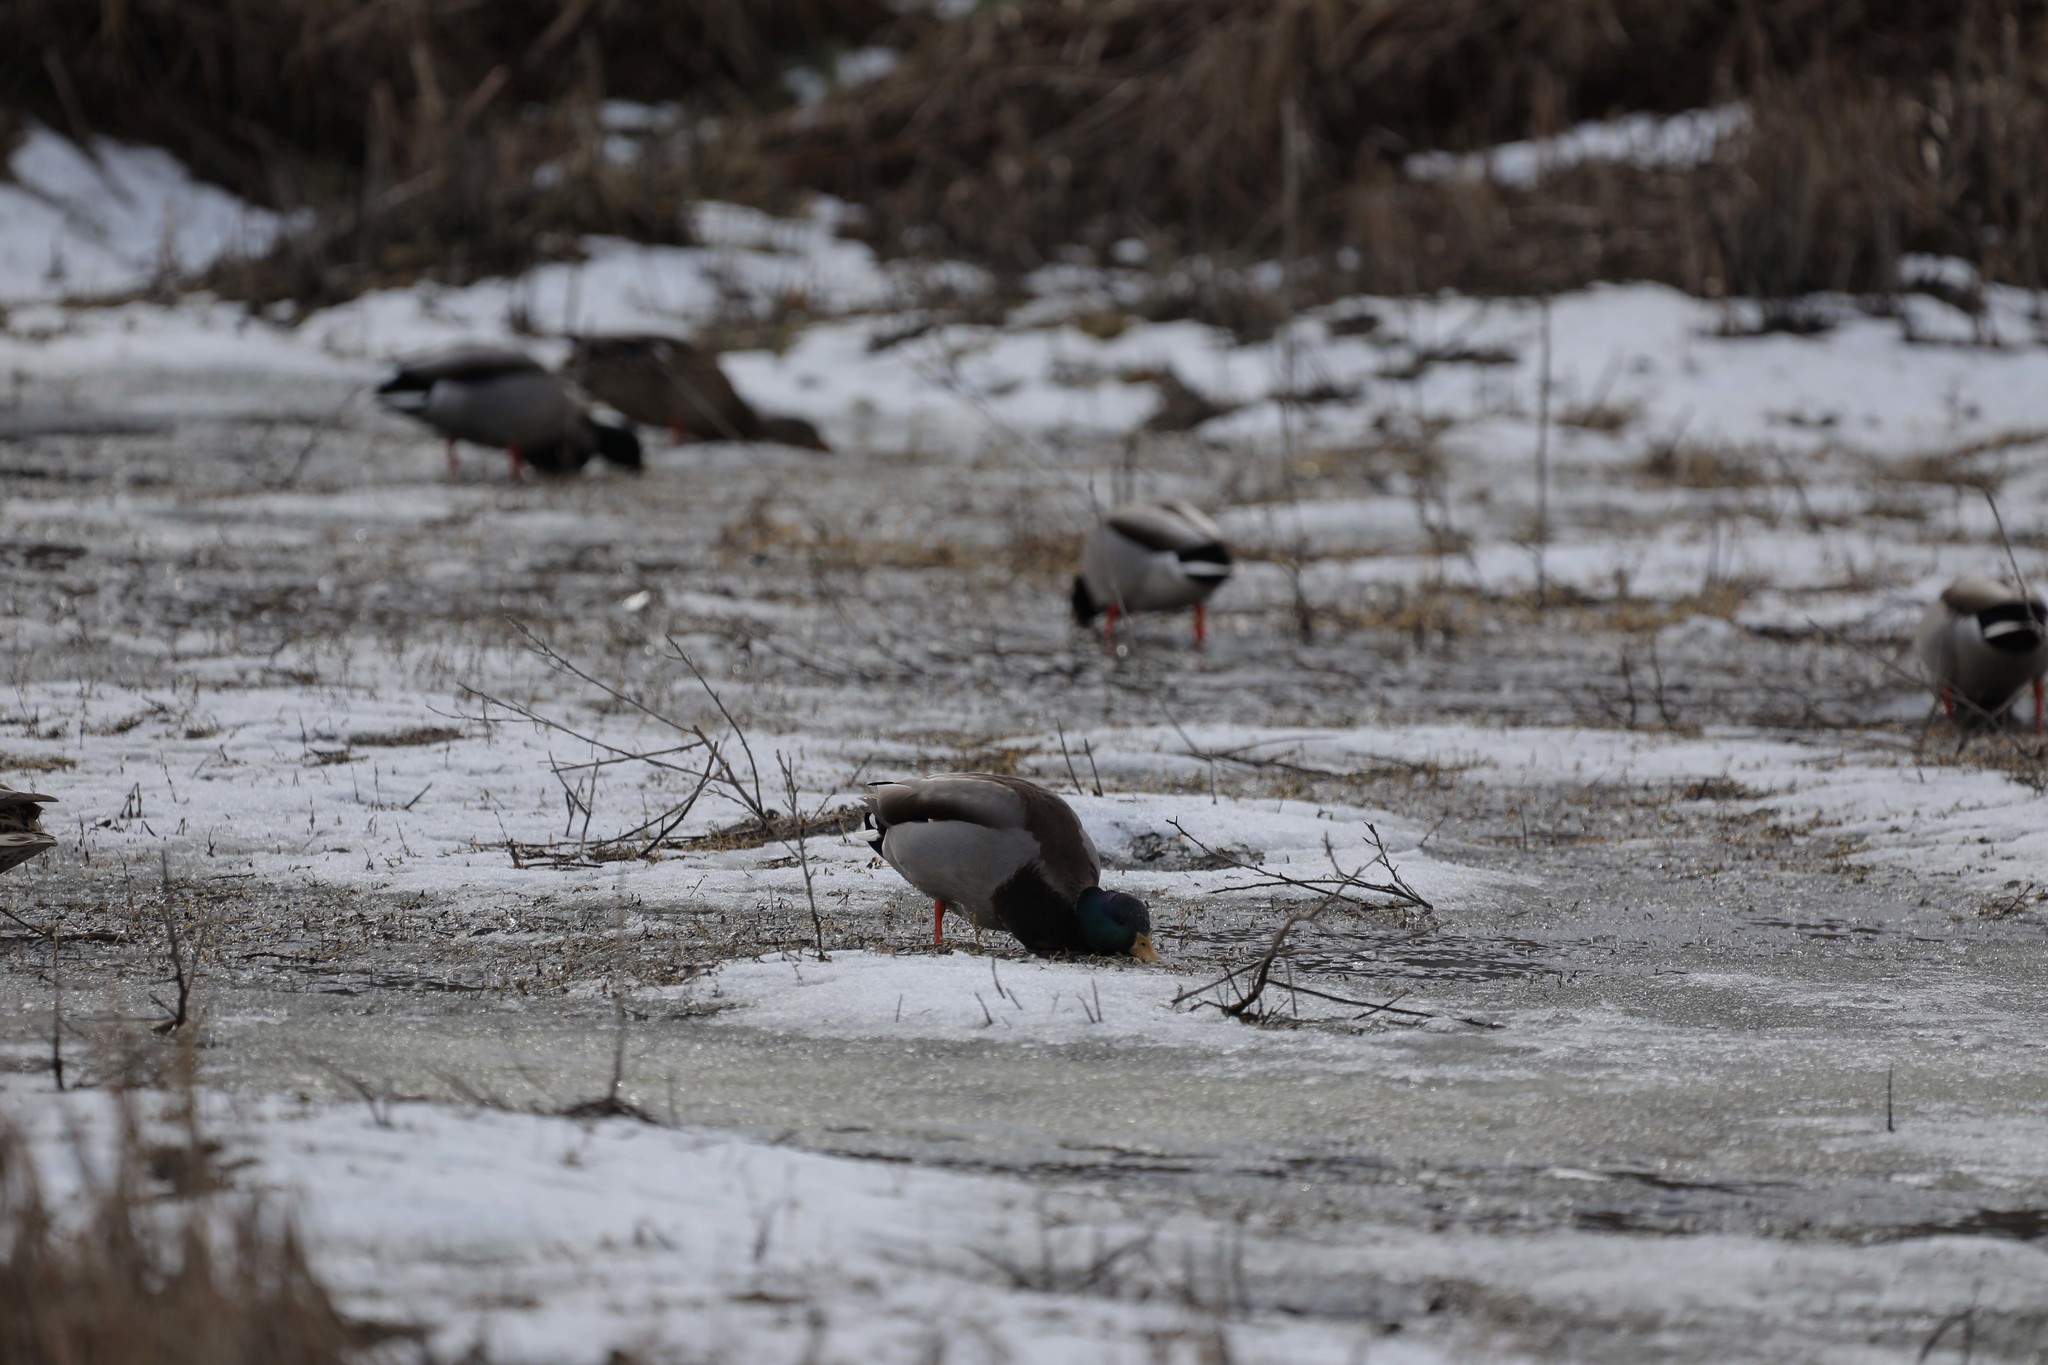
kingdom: Animalia
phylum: Chordata
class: Aves
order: Anseriformes
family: Anatidae
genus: Anas
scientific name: Anas platyrhynchos
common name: Mallard
